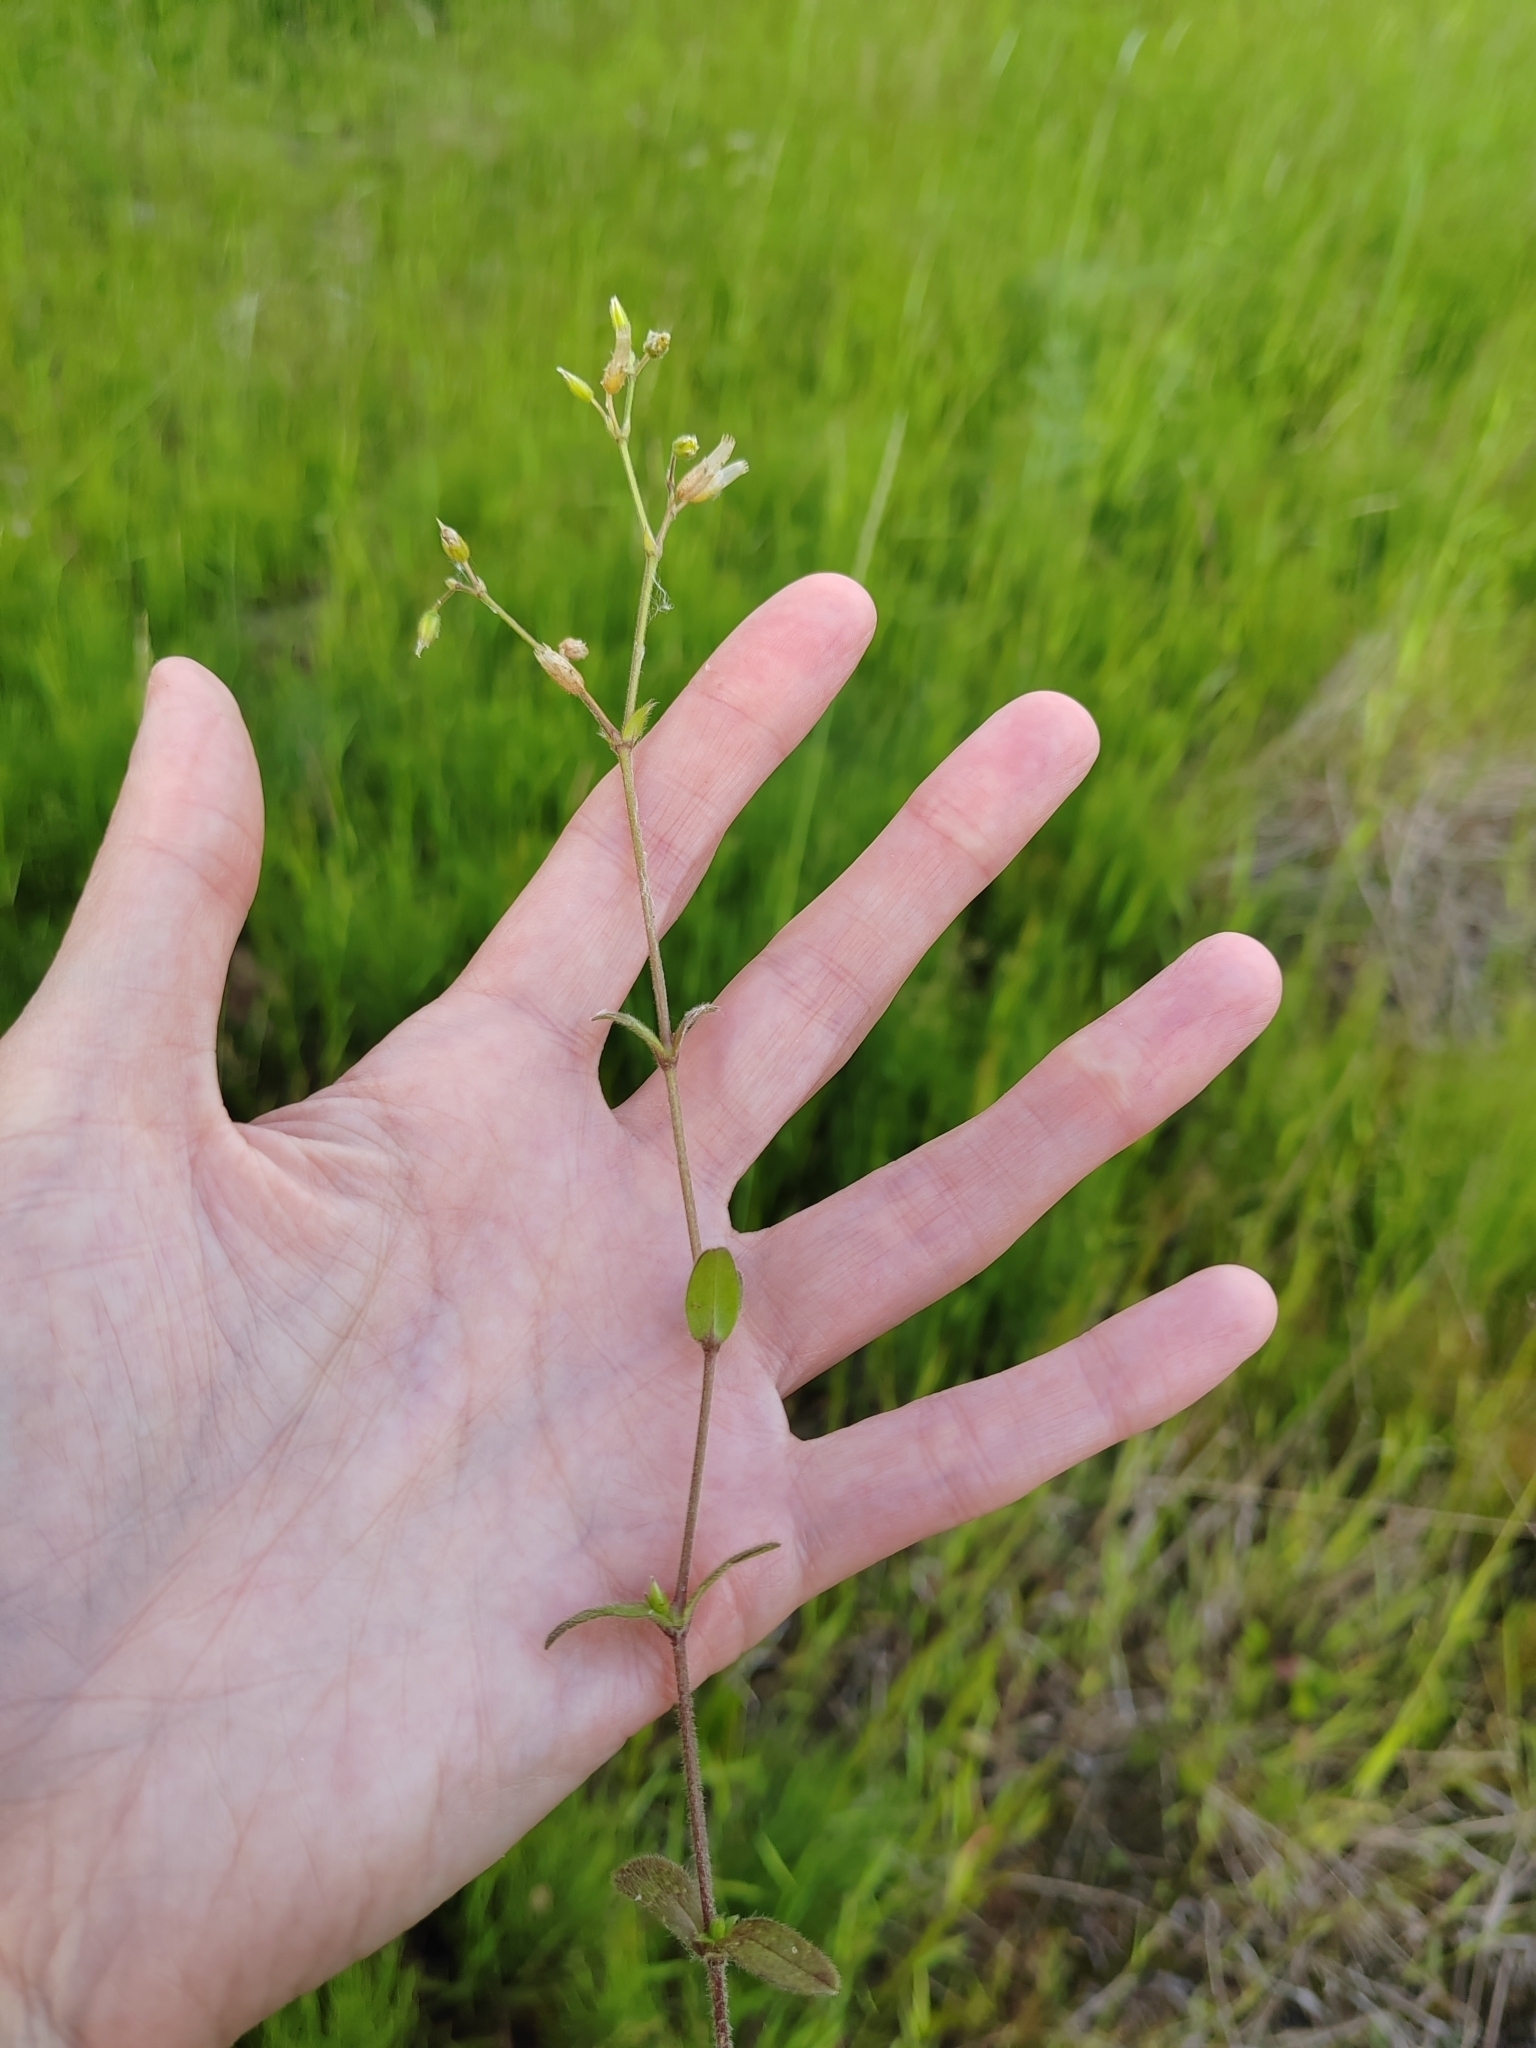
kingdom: Plantae
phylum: Tracheophyta
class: Magnoliopsida
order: Caryophyllales
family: Caryophyllaceae
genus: Cerastium
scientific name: Cerastium holosteoides
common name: Big chickweed
